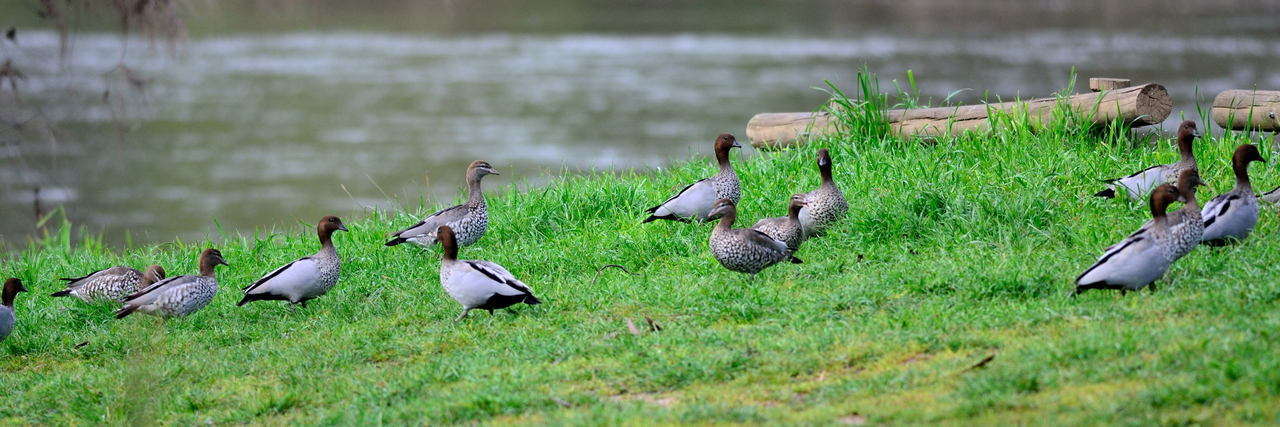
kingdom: Animalia
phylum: Chordata
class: Aves
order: Anseriformes
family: Anatidae
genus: Chenonetta
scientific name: Chenonetta jubata
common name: Maned duck
